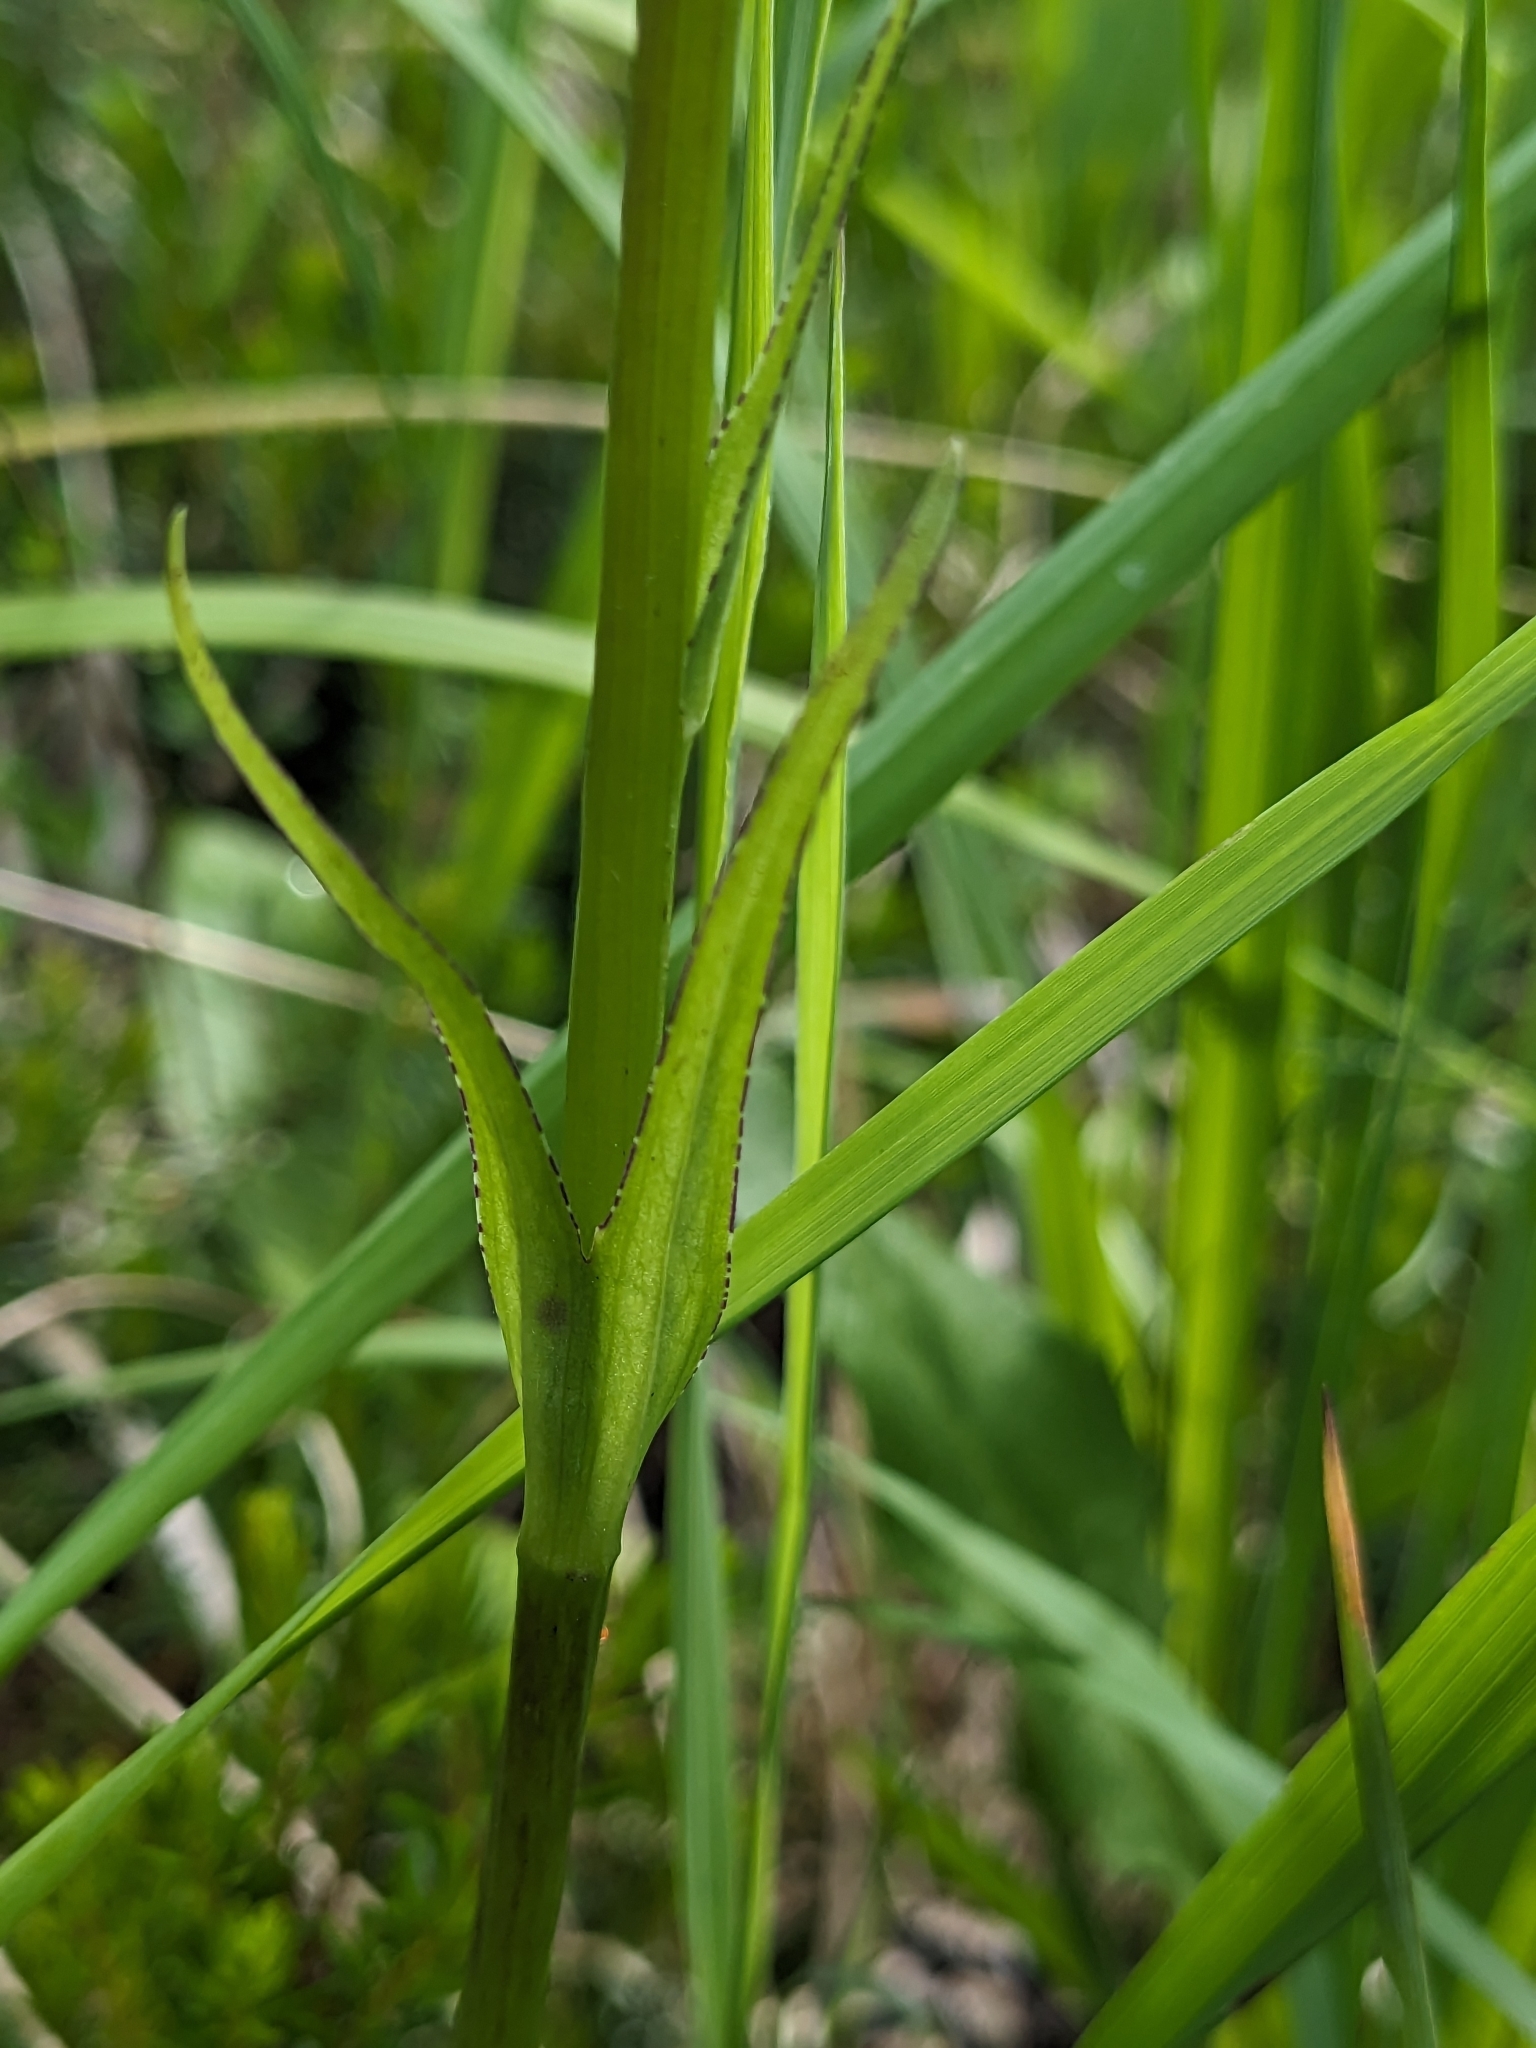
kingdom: Plantae
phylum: Tracheophyta
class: Liliopsida
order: Asparagales
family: Orchidaceae
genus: Dactylorhiza
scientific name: Dactylorhiza maculata
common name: Heath spotted-orchid
